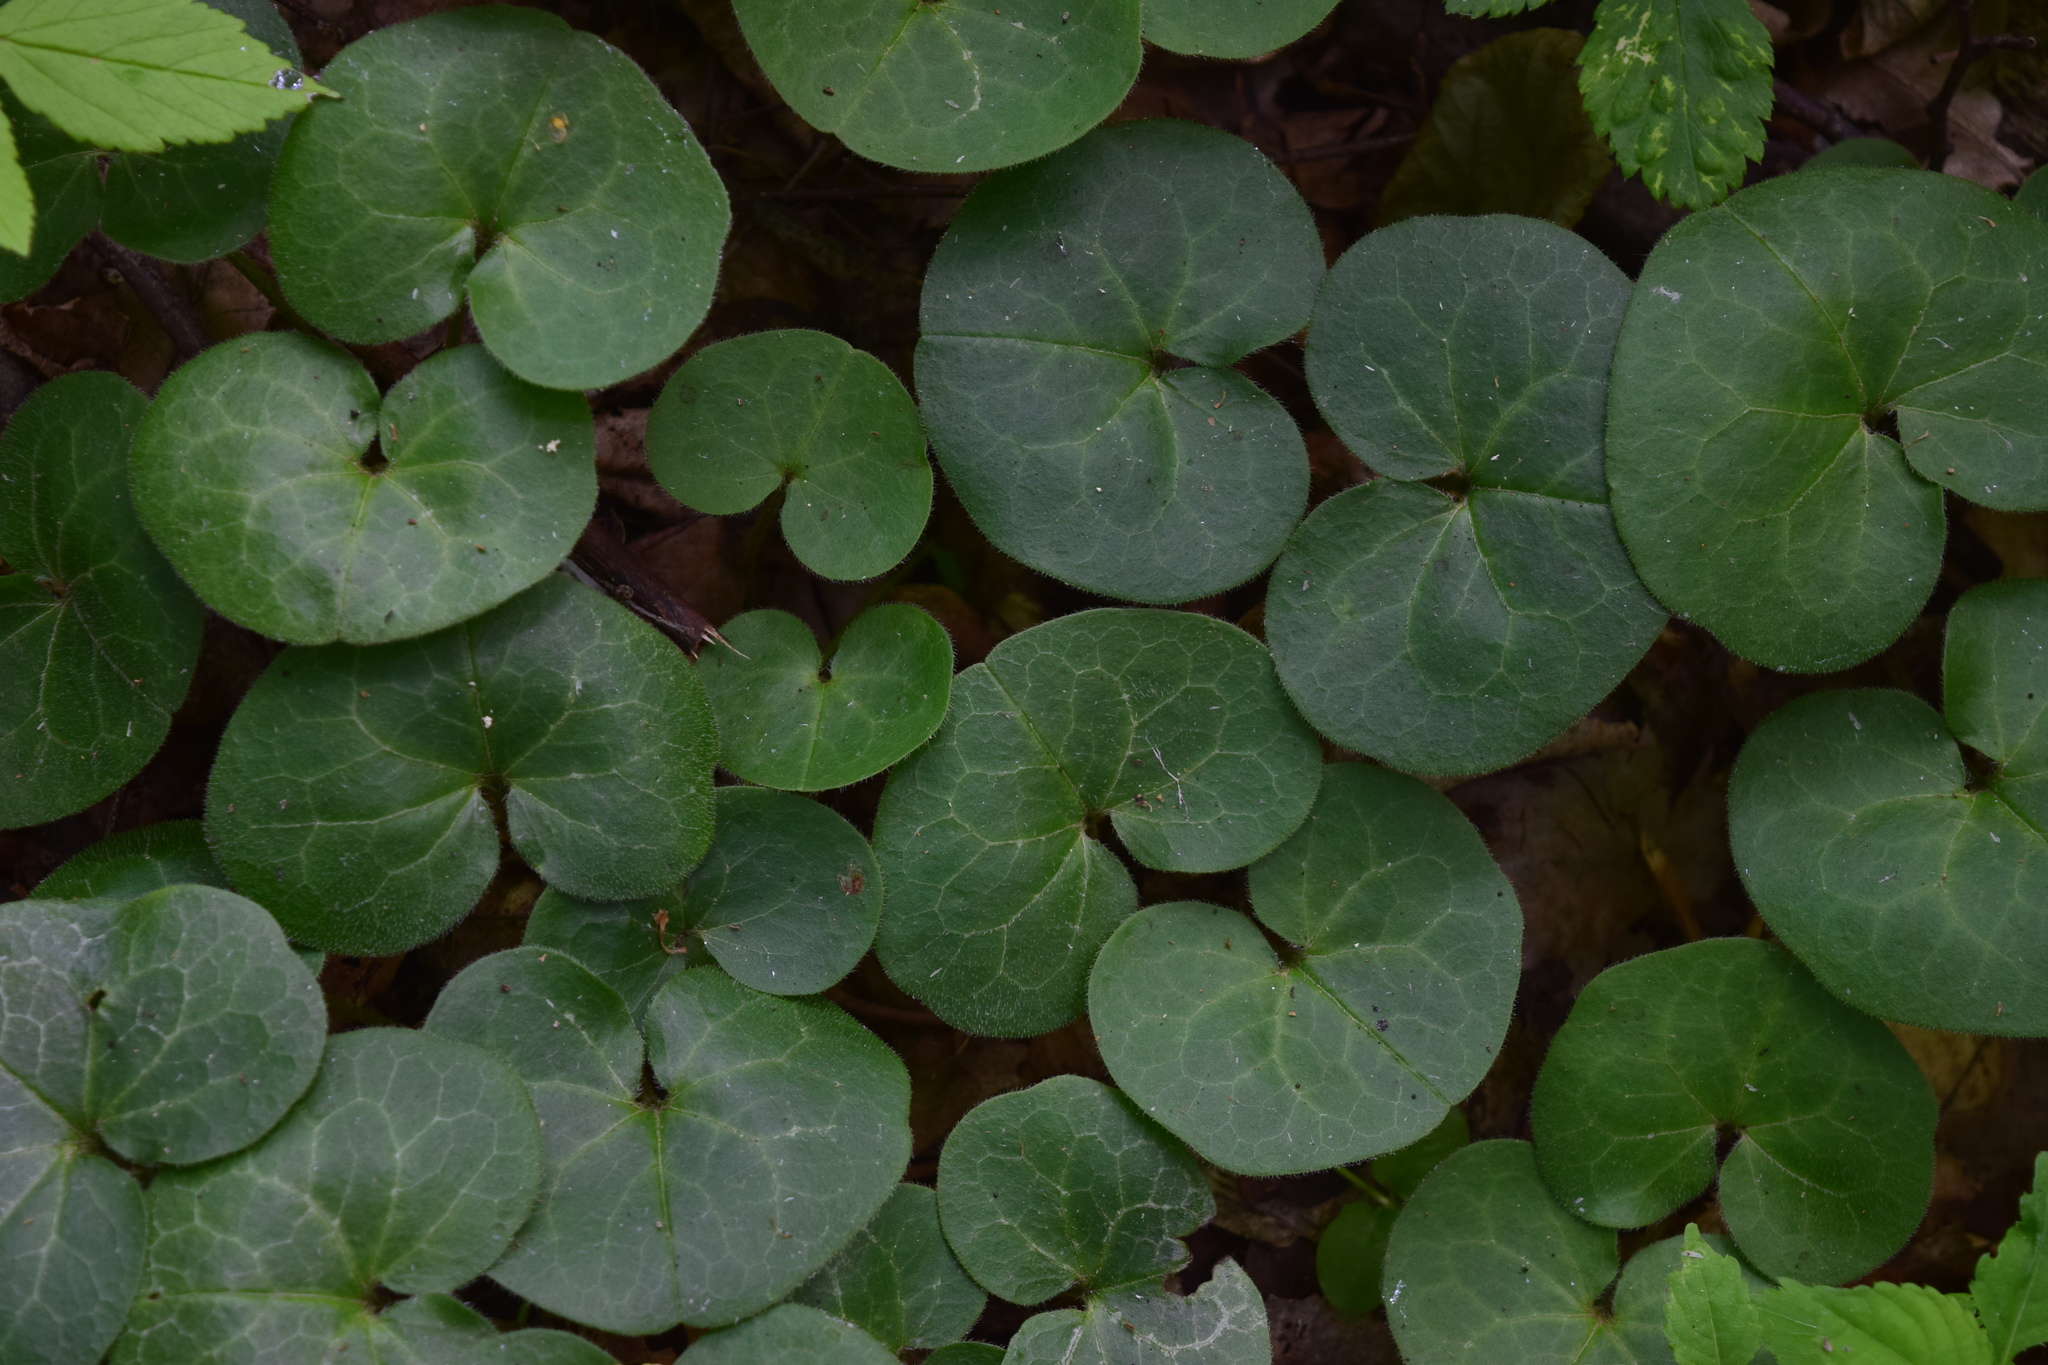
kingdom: Plantae
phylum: Tracheophyta
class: Magnoliopsida
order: Piperales
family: Aristolochiaceae
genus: Asarum
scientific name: Asarum europaeum
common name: Asarabacca
